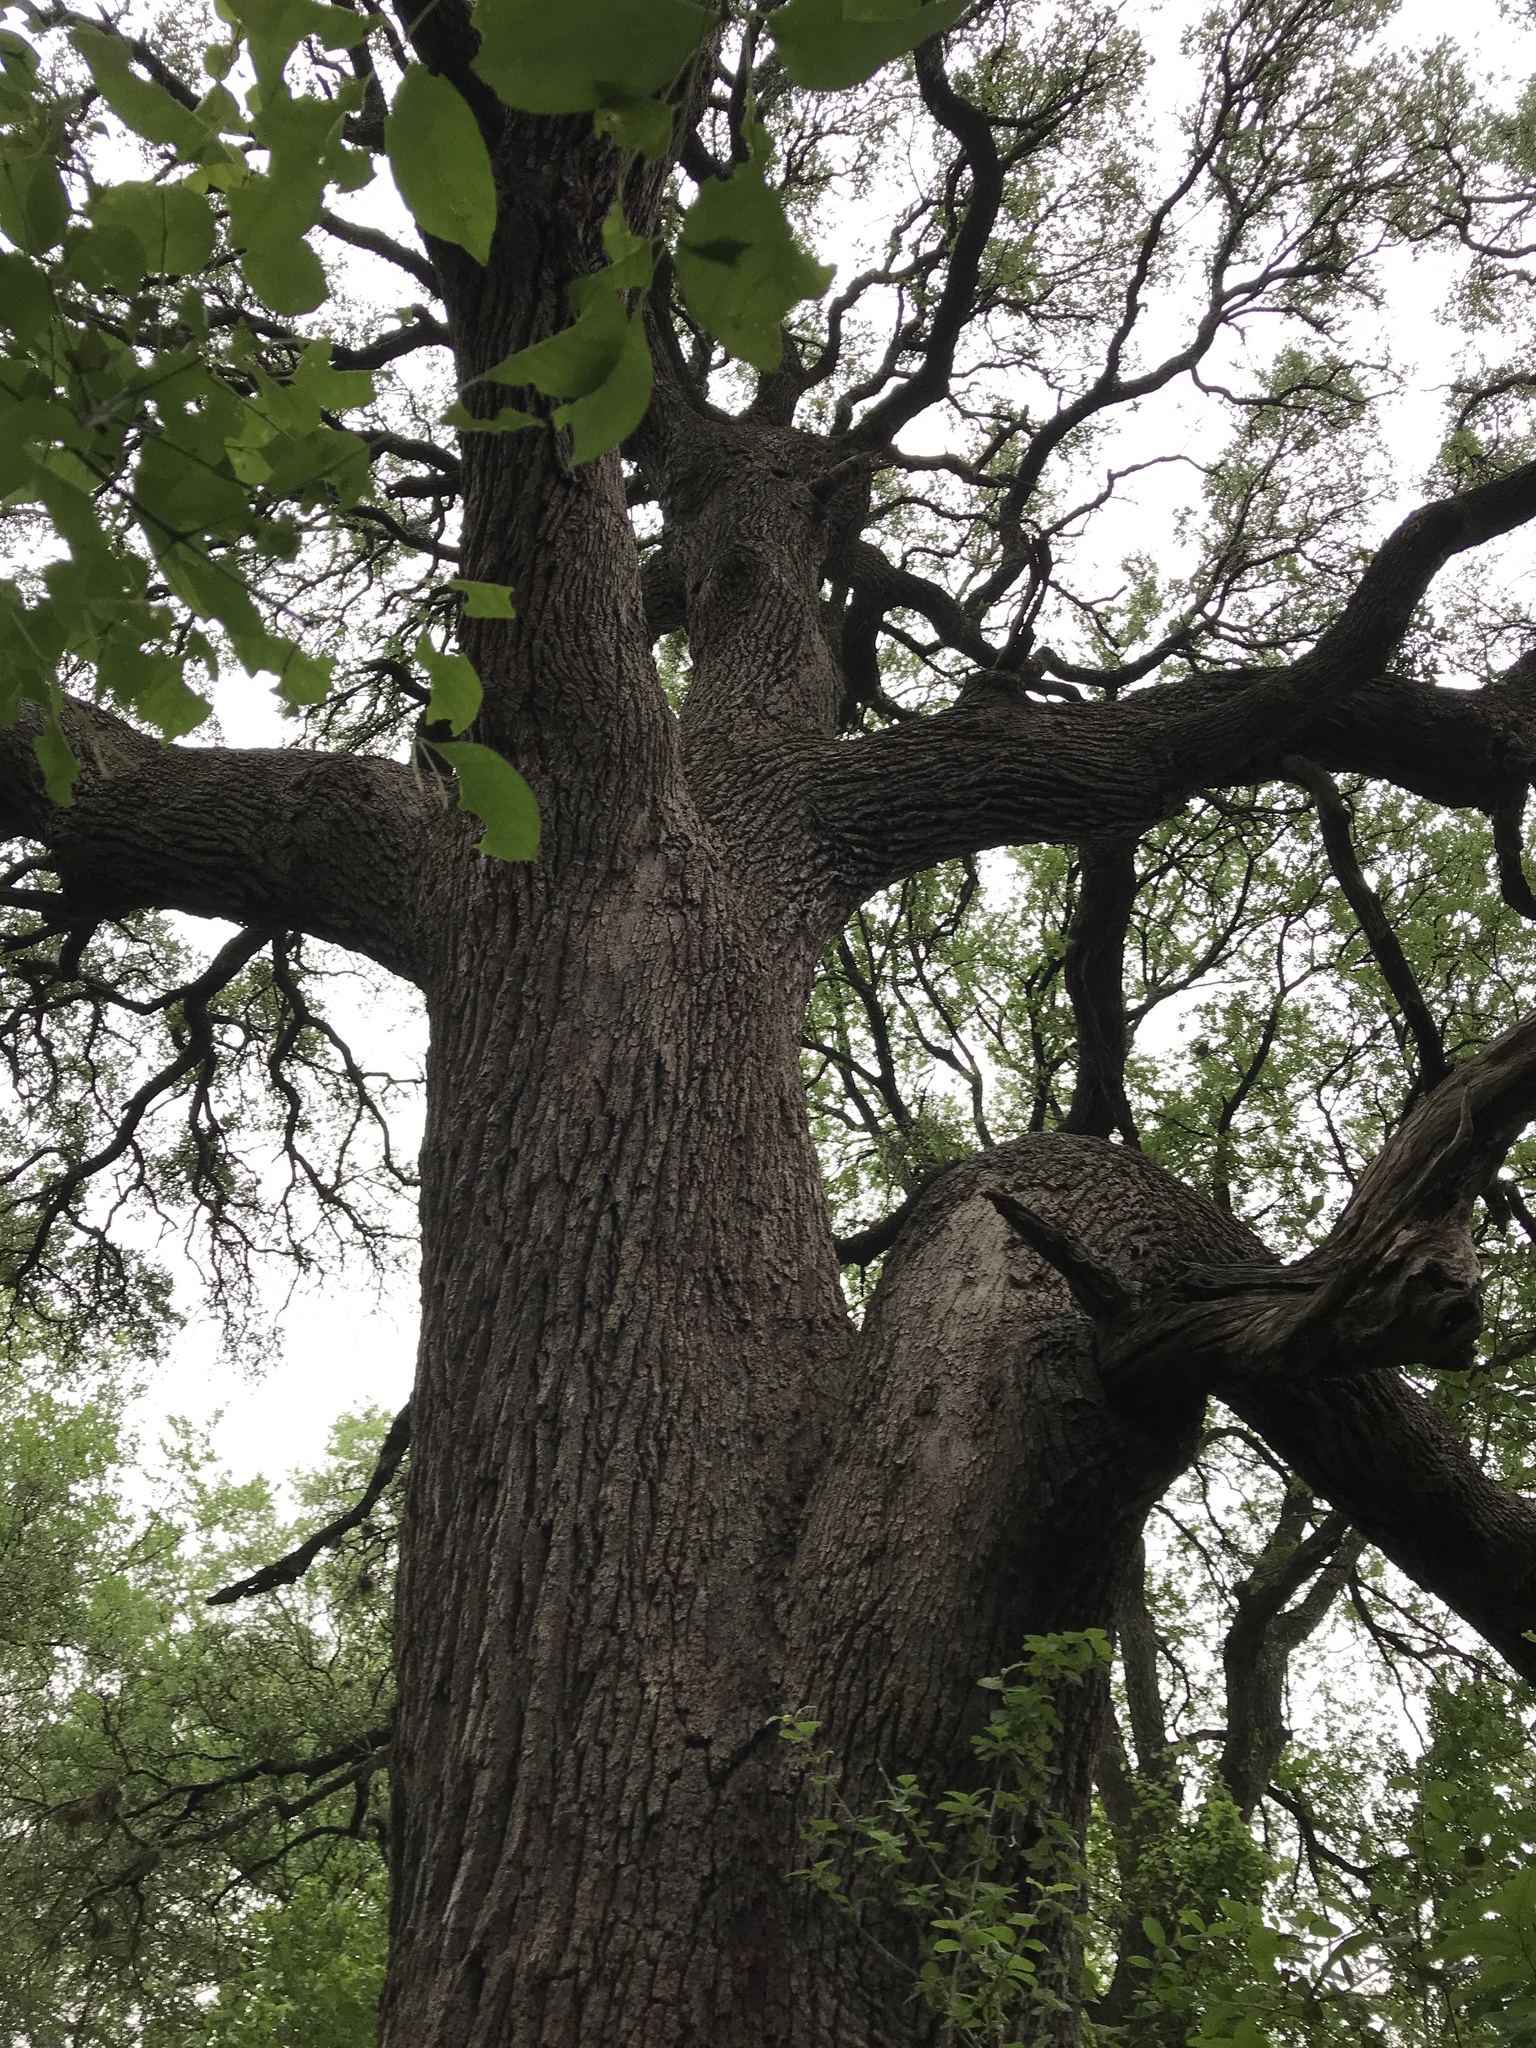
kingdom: Plantae
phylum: Tracheophyta
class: Magnoliopsida
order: Fagales
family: Fagaceae
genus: Quercus
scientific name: Quercus fusiformis
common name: Texas live oak
